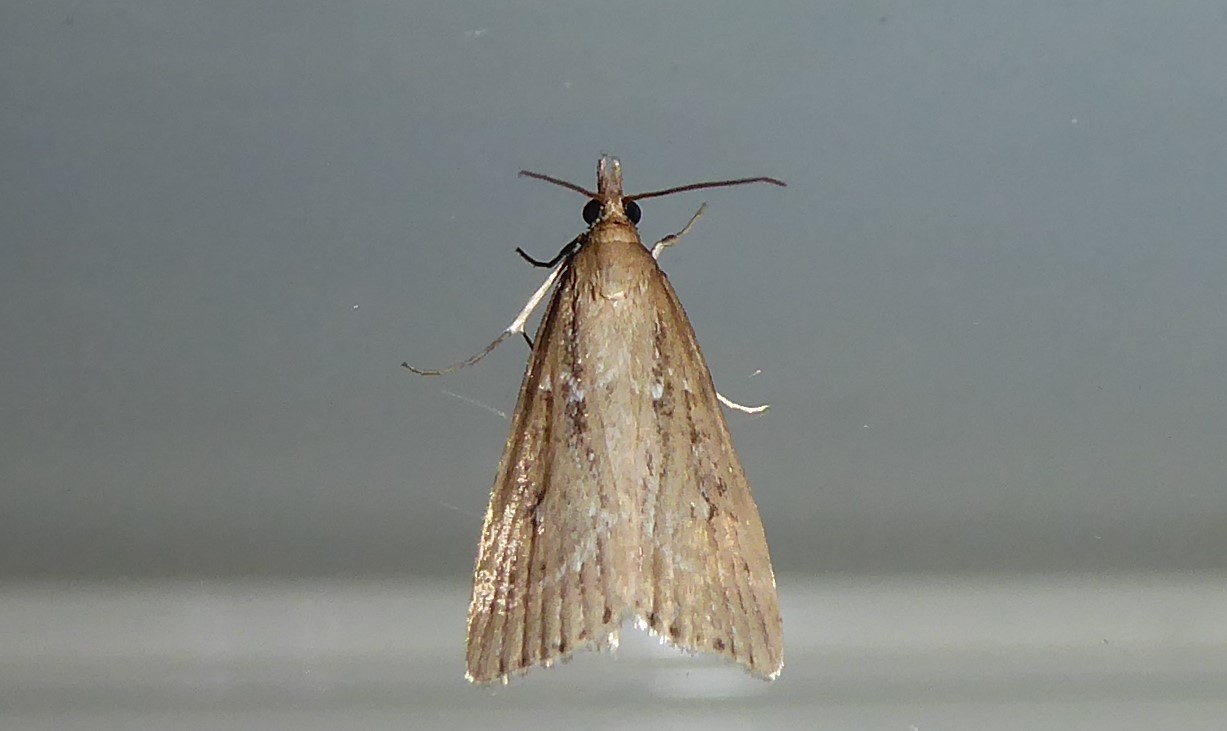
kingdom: Animalia
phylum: Arthropoda
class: Insecta
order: Lepidoptera
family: Crambidae
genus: Eudonia
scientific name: Eudonia octophora
